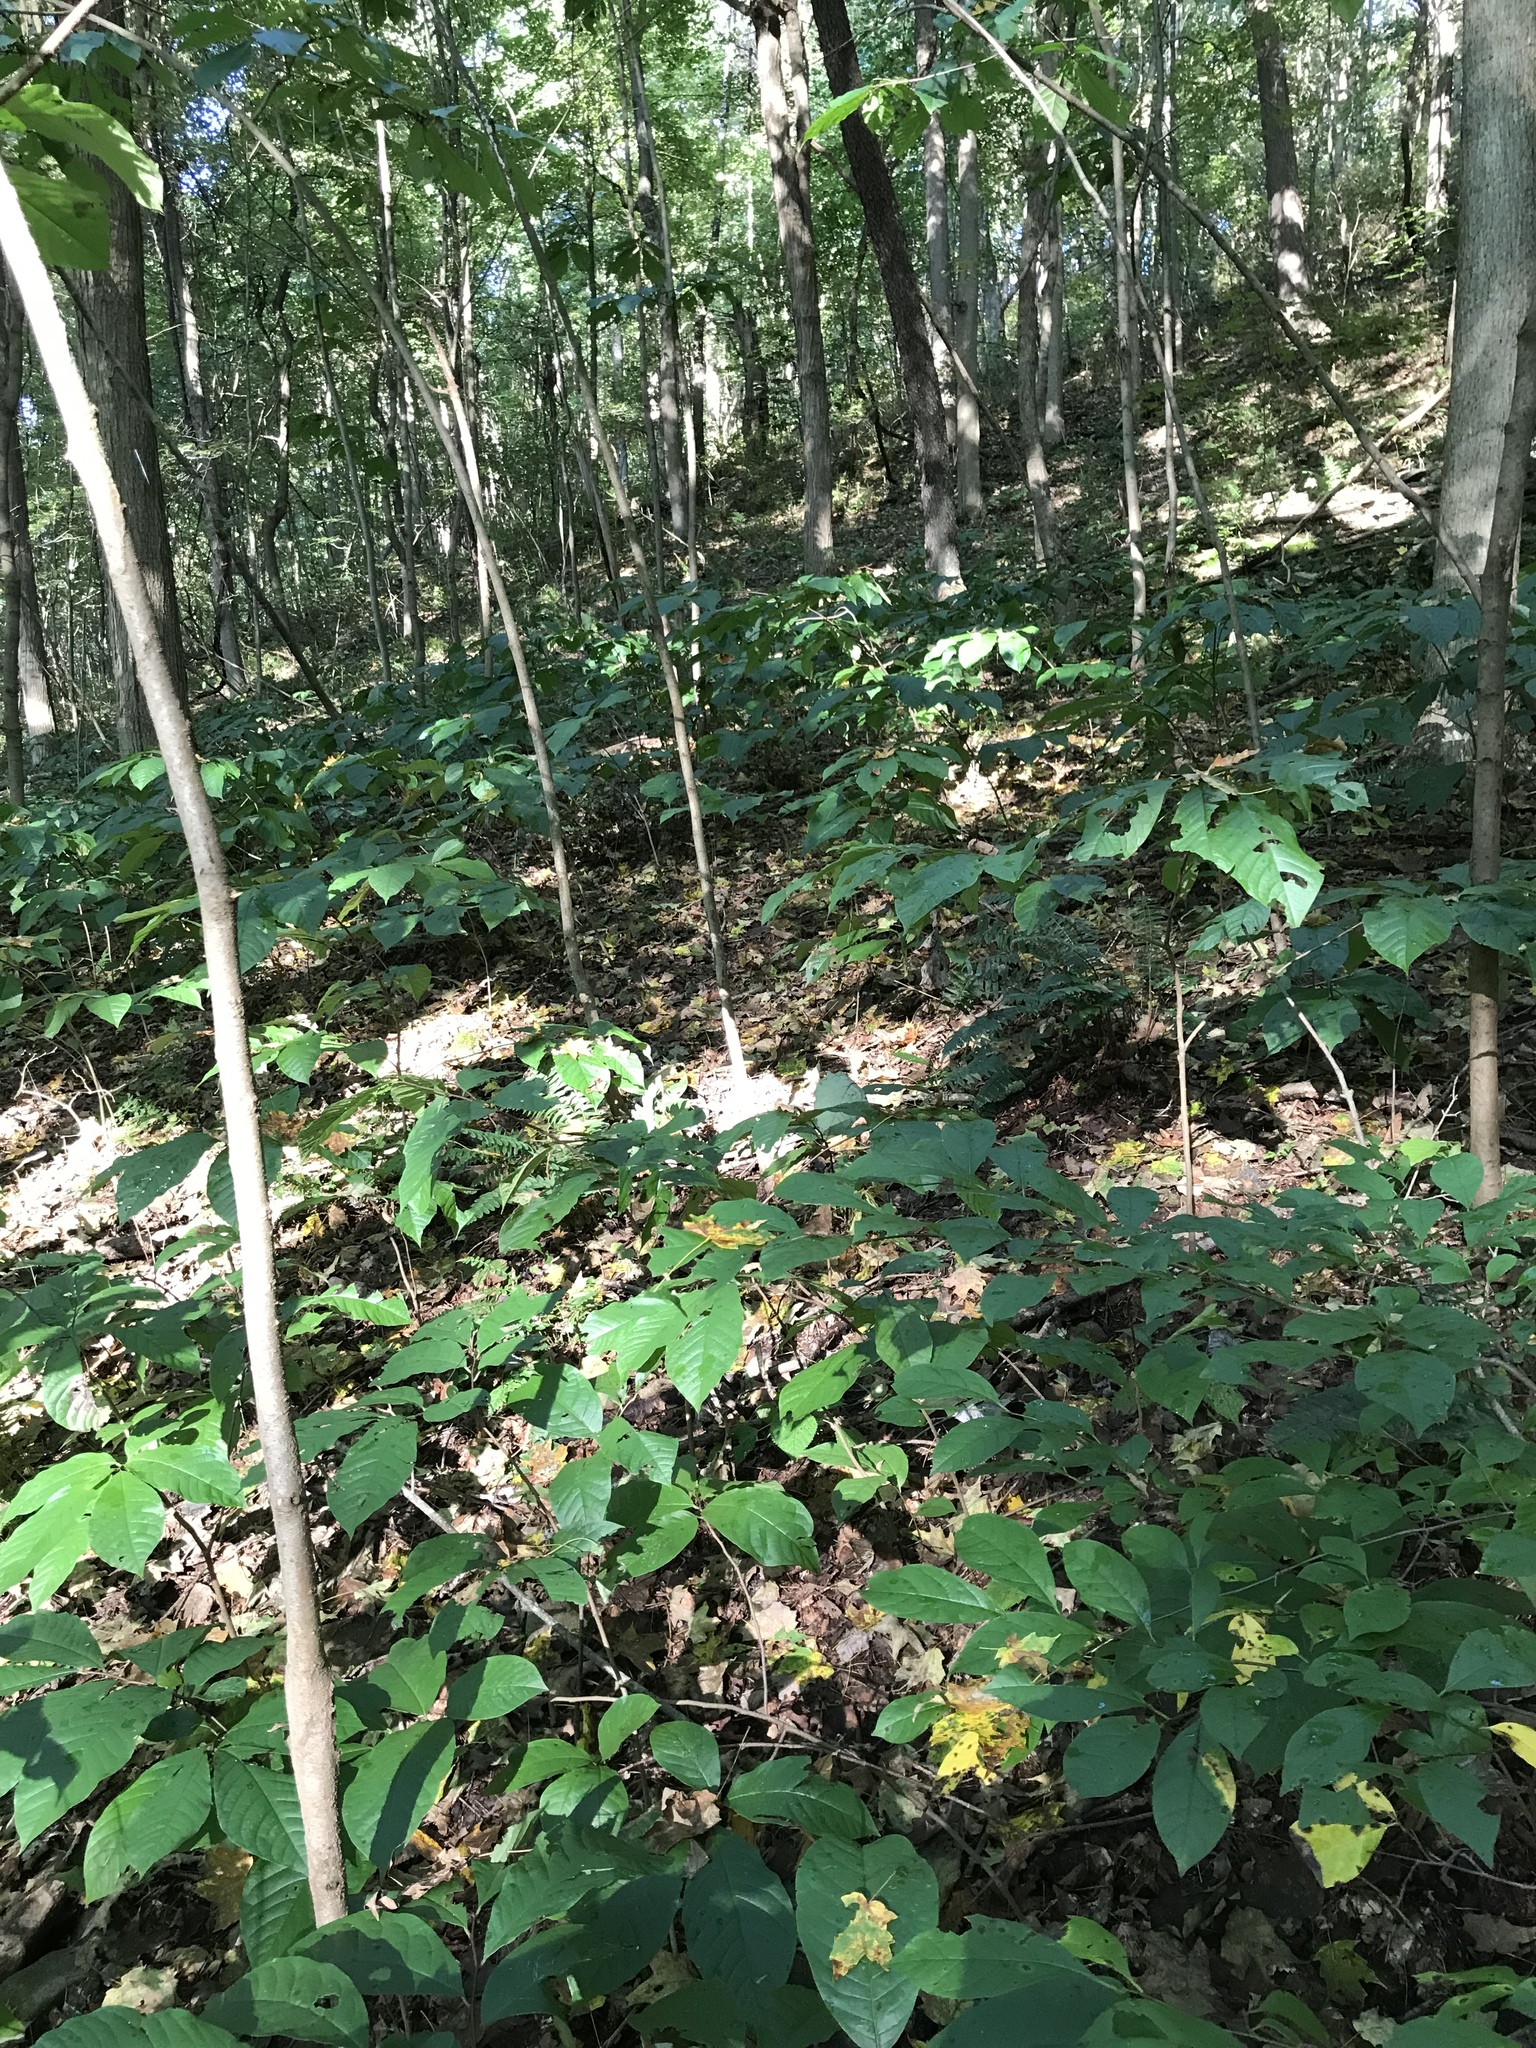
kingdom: Plantae
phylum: Tracheophyta
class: Magnoliopsida
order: Magnoliales
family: Annonaceae
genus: Asimina
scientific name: Asimina triloba
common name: Dog-banana
